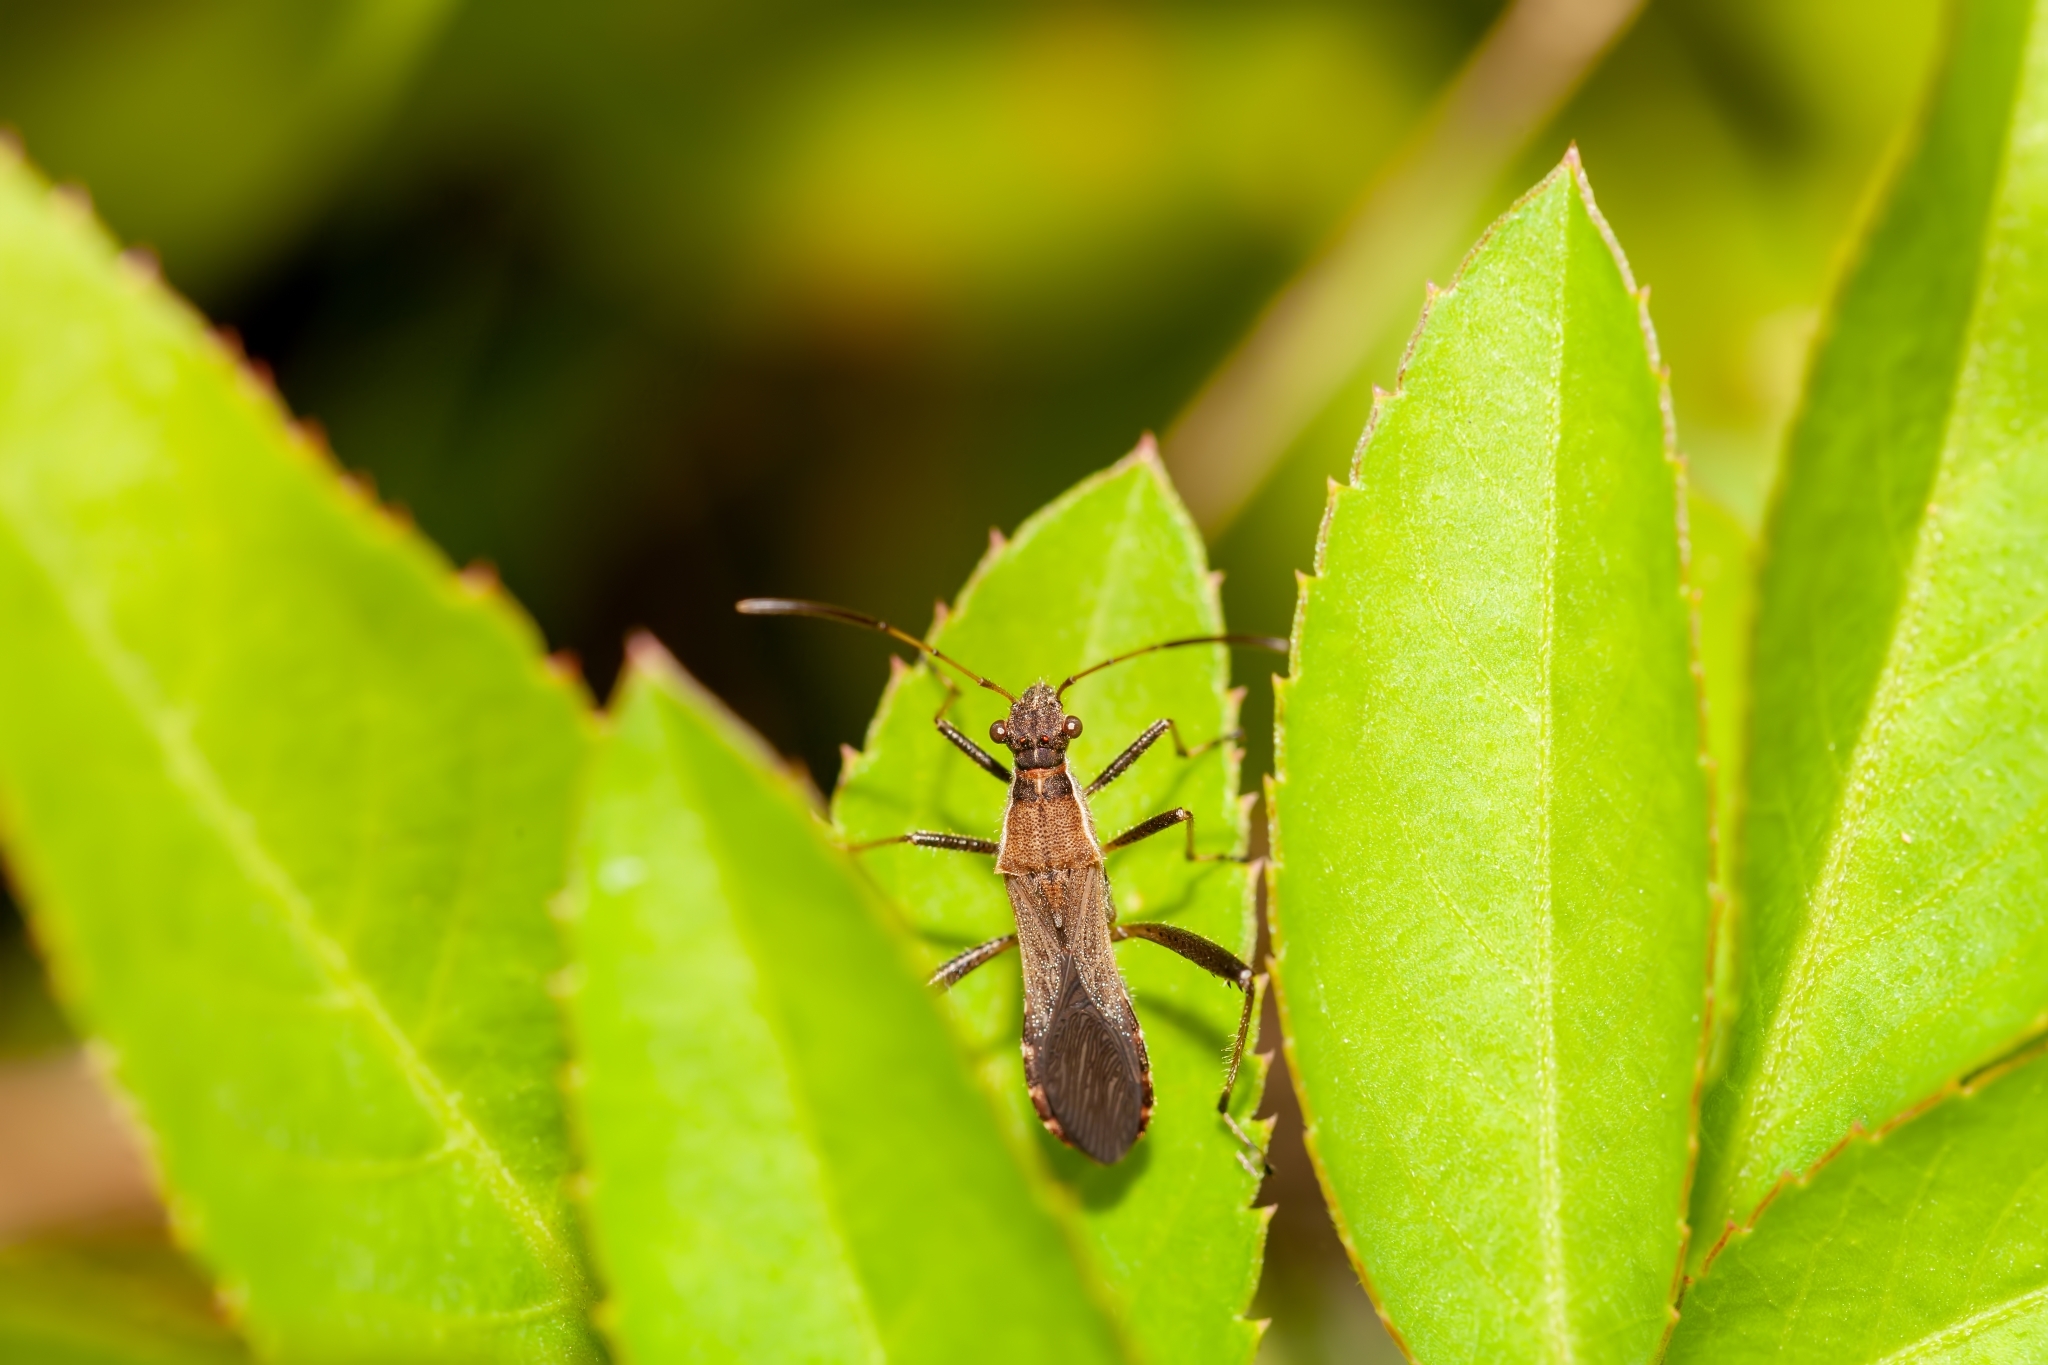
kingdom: Animalia
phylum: Arthropoda
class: Insecta
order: Hemiptera
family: Alydidae
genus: Alydus
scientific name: Alydus pilosulus
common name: Broad-headed bug
